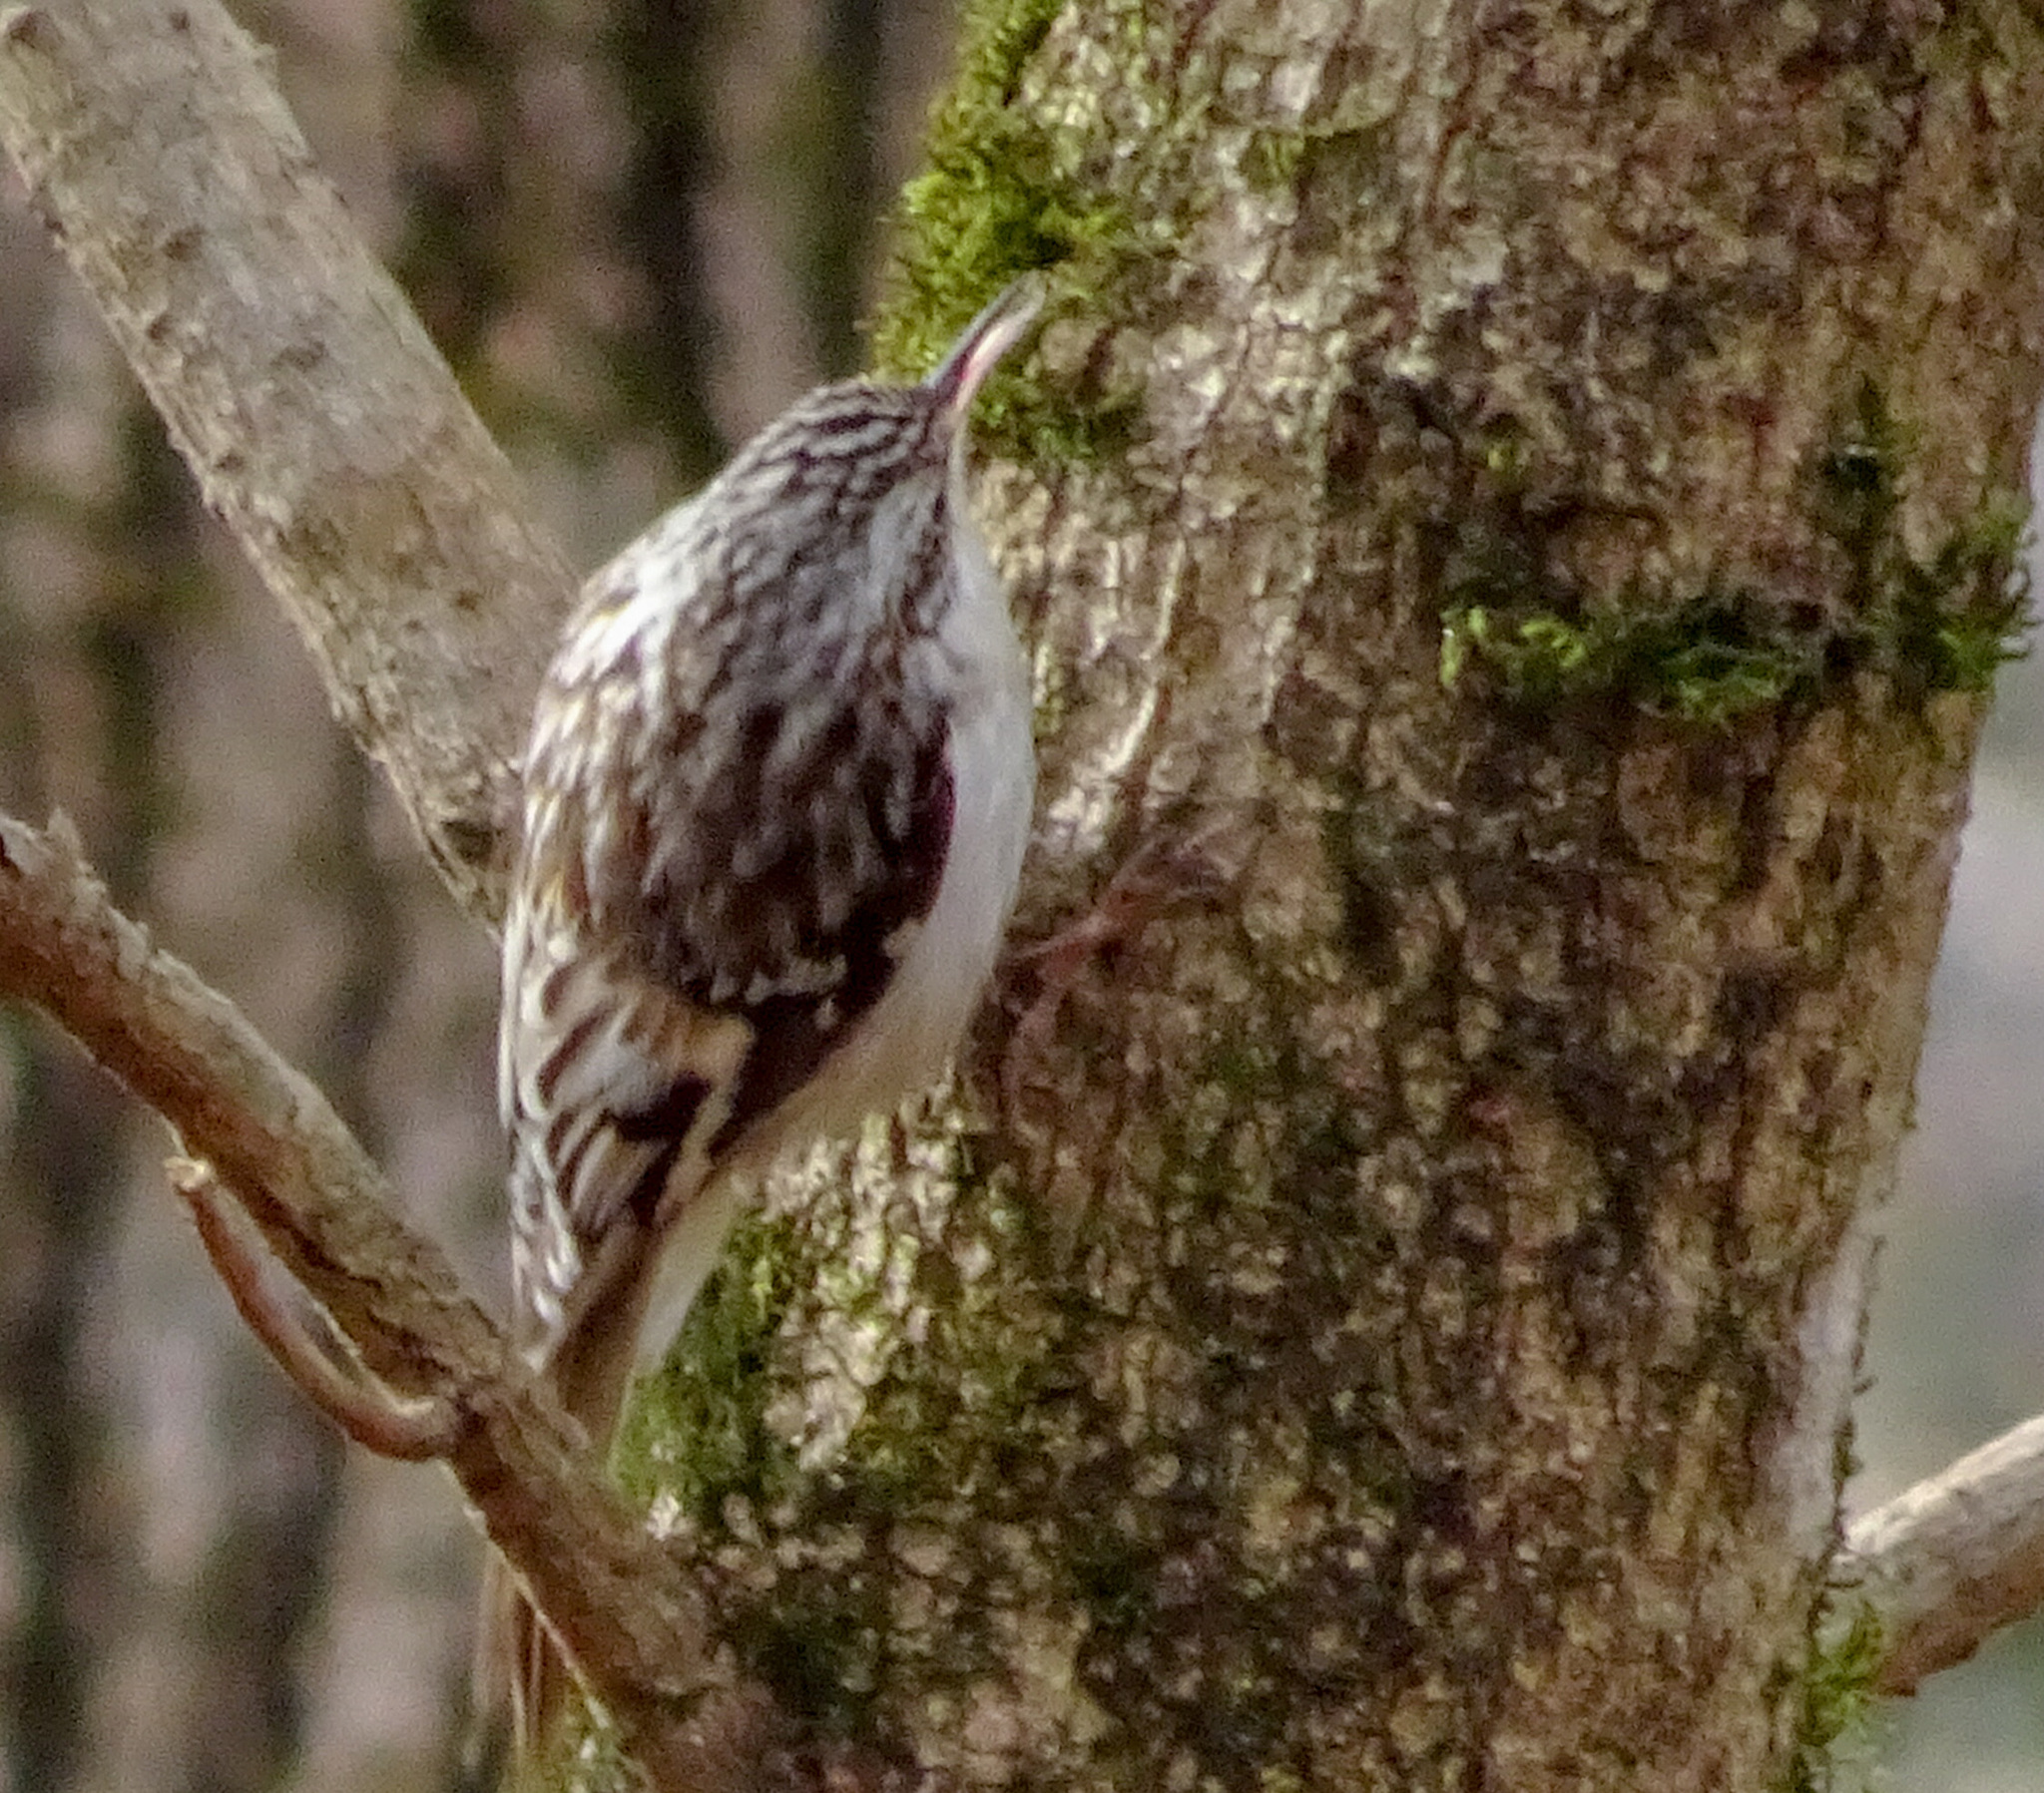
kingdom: Animalia
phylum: Chordata
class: Aves
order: Passeriformes
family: Certhiidae
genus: Certhia
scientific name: Certhia americana
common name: Brown creeper
